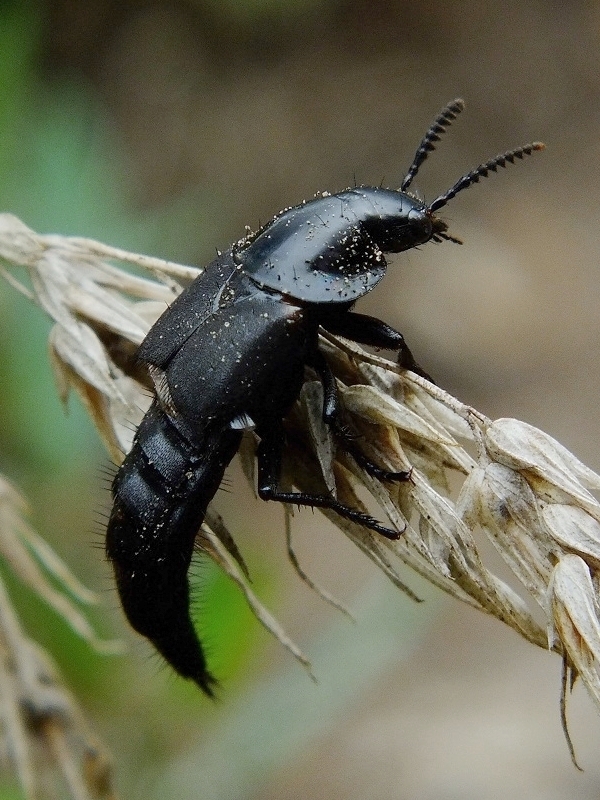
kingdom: Animalia
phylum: Arthropoda
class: Insecta
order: Coleoptera
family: Staphylinidae
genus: Quedius
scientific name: Quedius dilatatus
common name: Hornet rove-beetle
